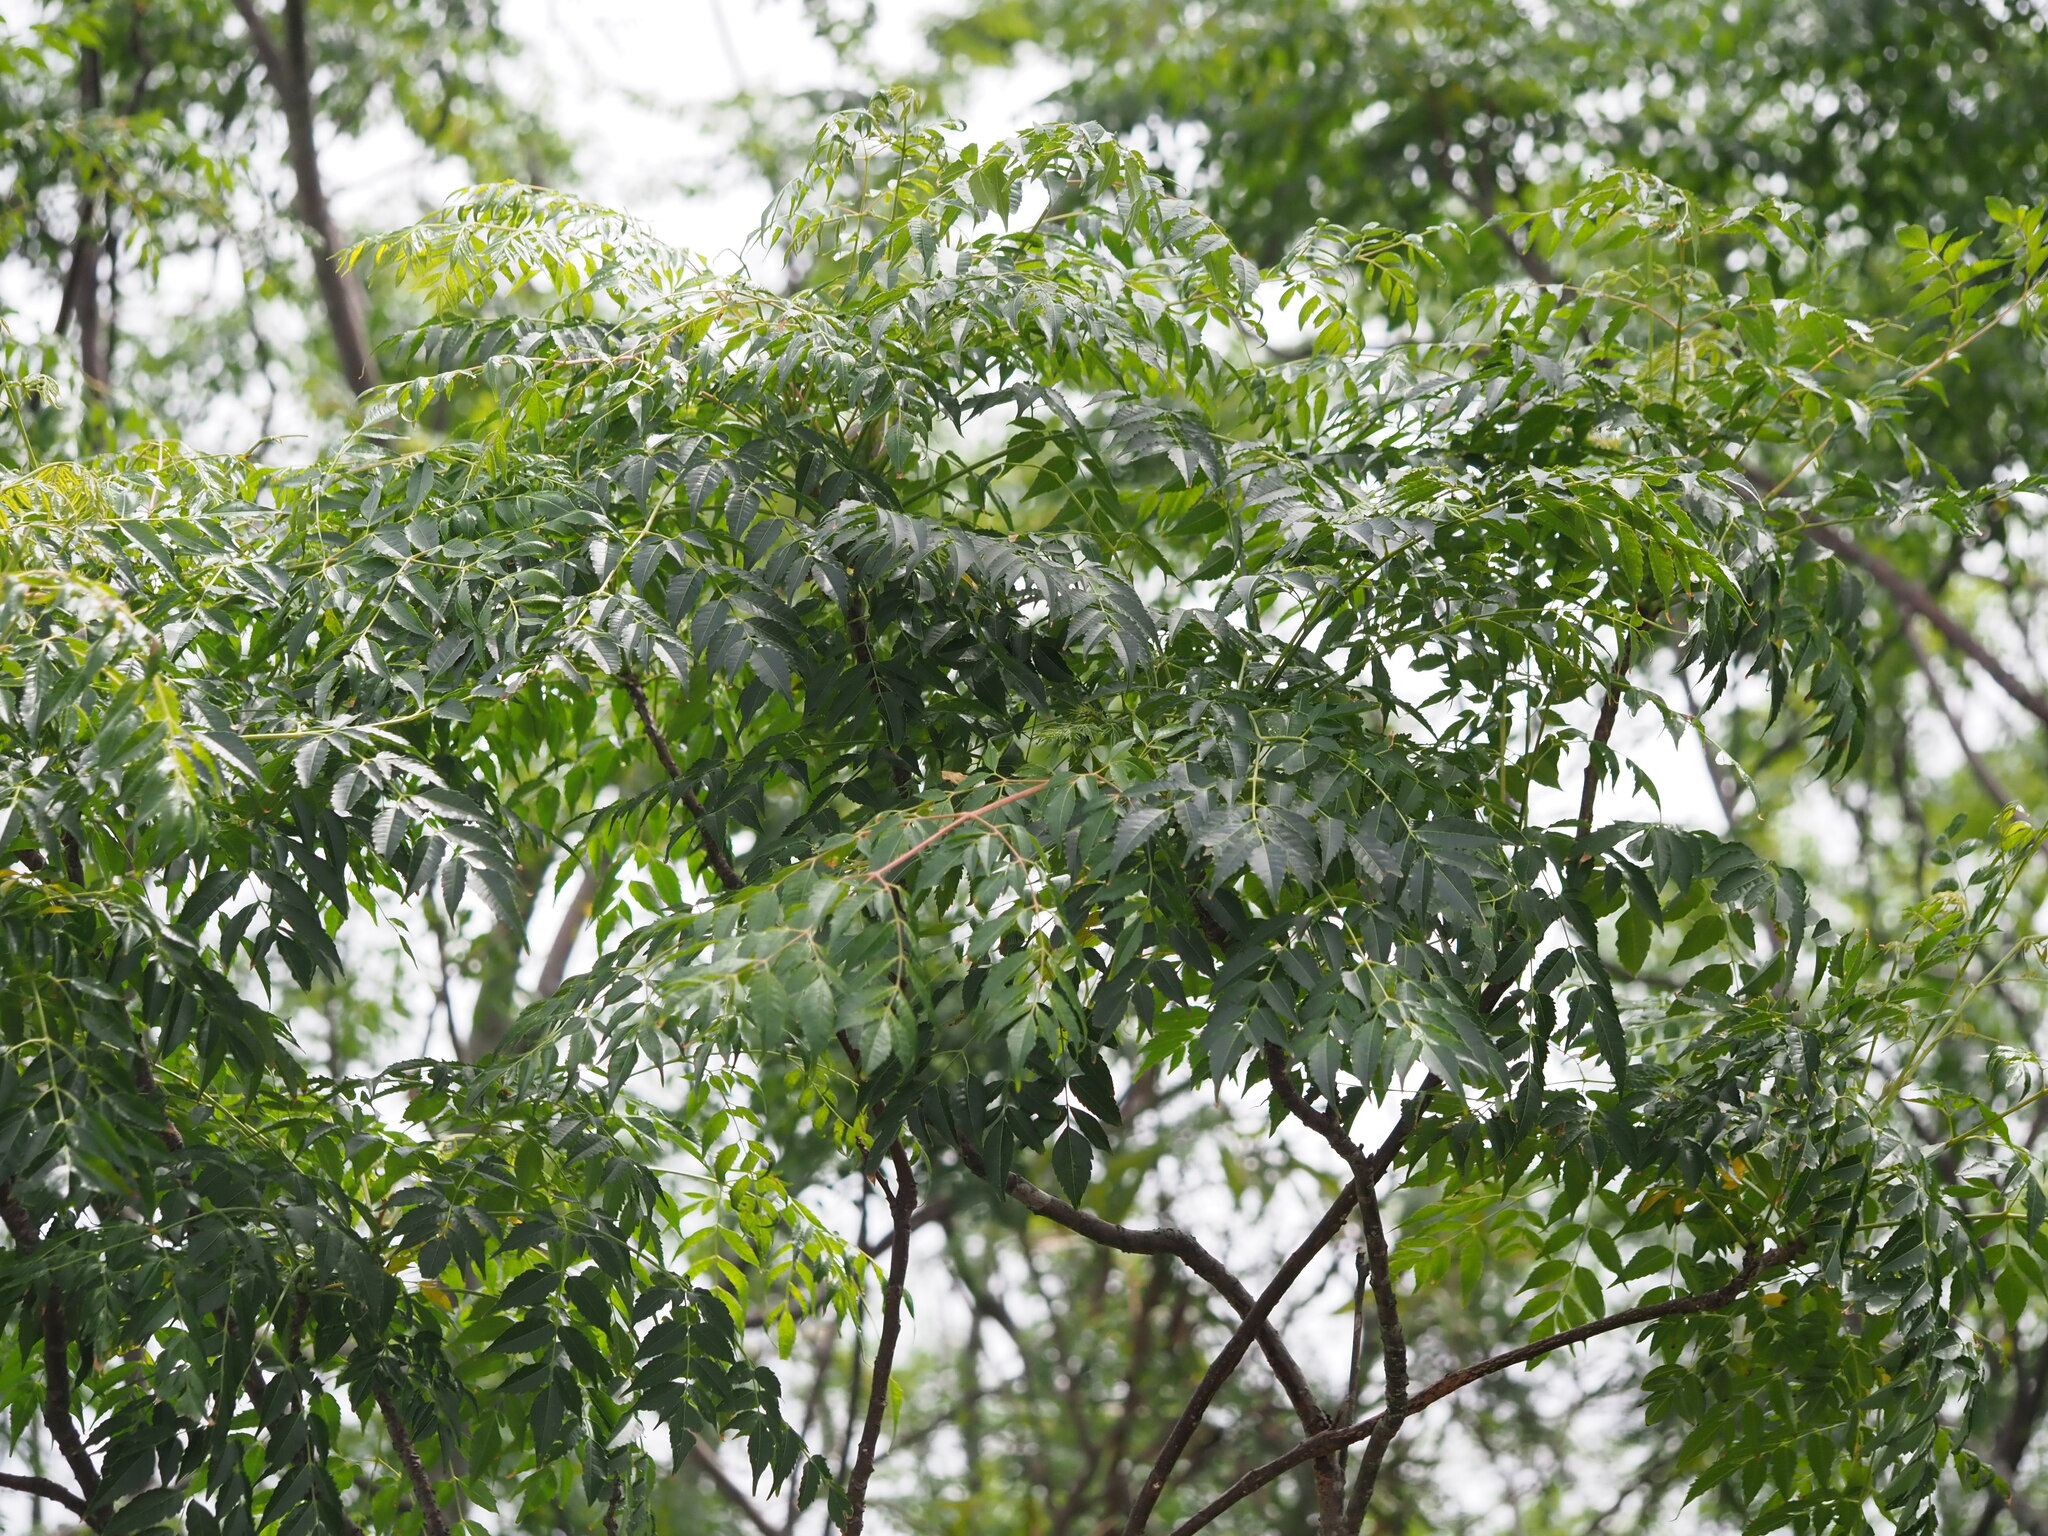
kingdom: Plantae
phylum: Tracheophyta
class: Magnoliopsida
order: Sapindales
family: Meliaceae
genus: Melia
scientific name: Melia azedarach
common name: Chinaberrytree
